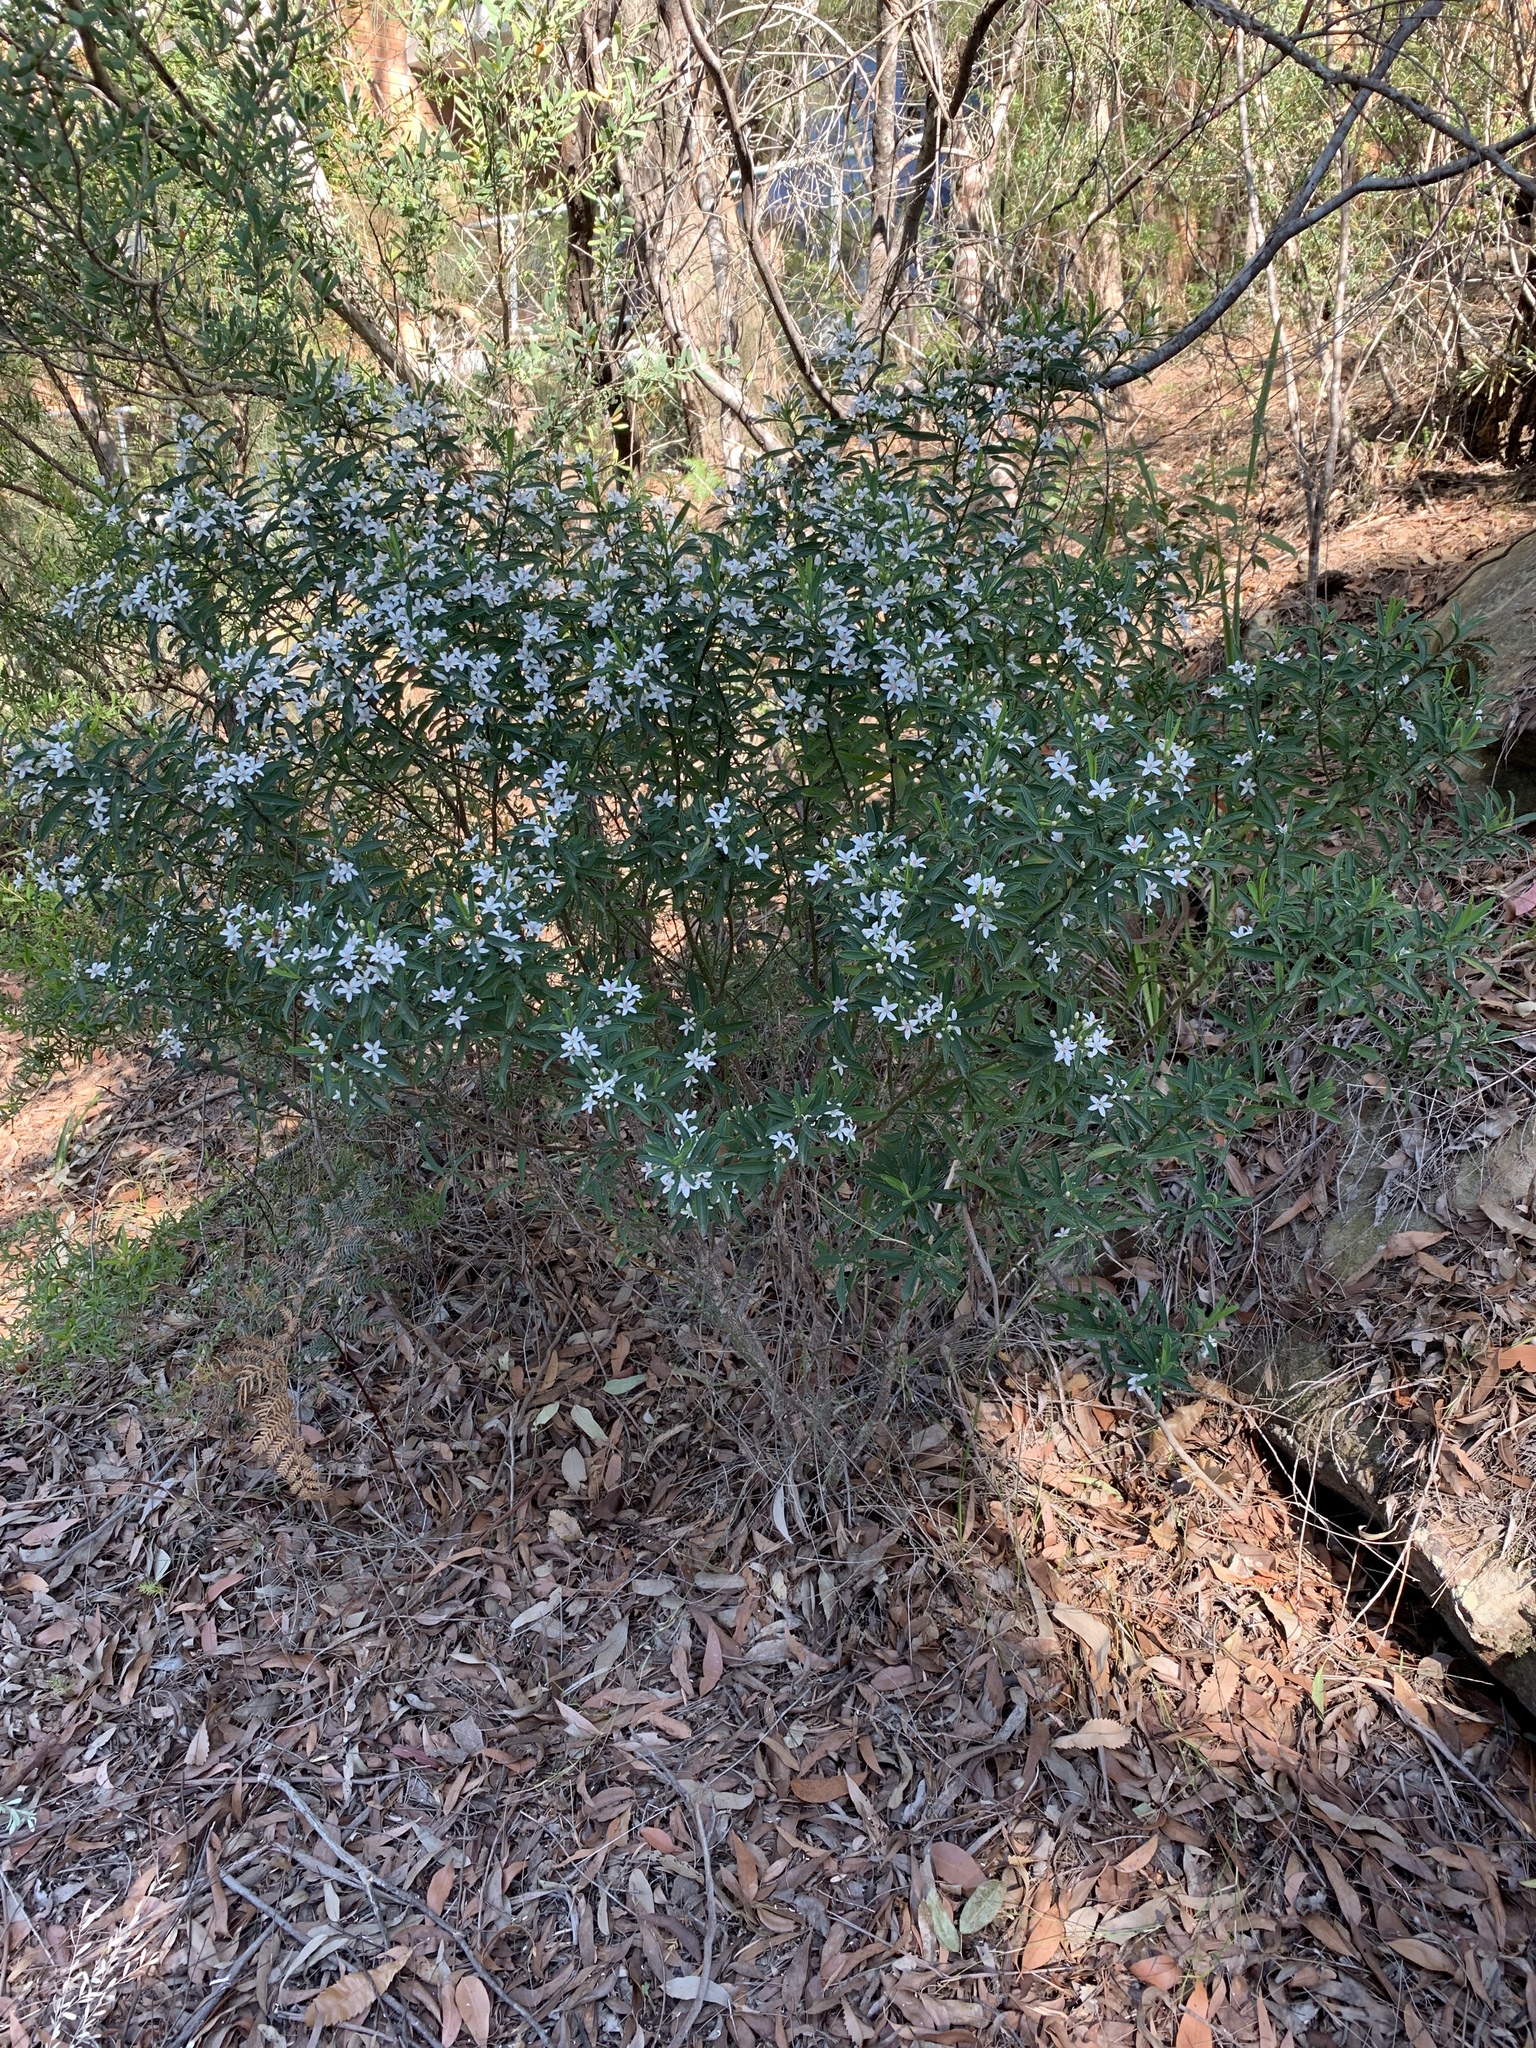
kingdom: Plantae
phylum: Tracheophyta
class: Magnoliopsida
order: Sapindales
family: Rutaceae
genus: Philotheca
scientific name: Philotheca myoporoides
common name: Longleaf waxflower
